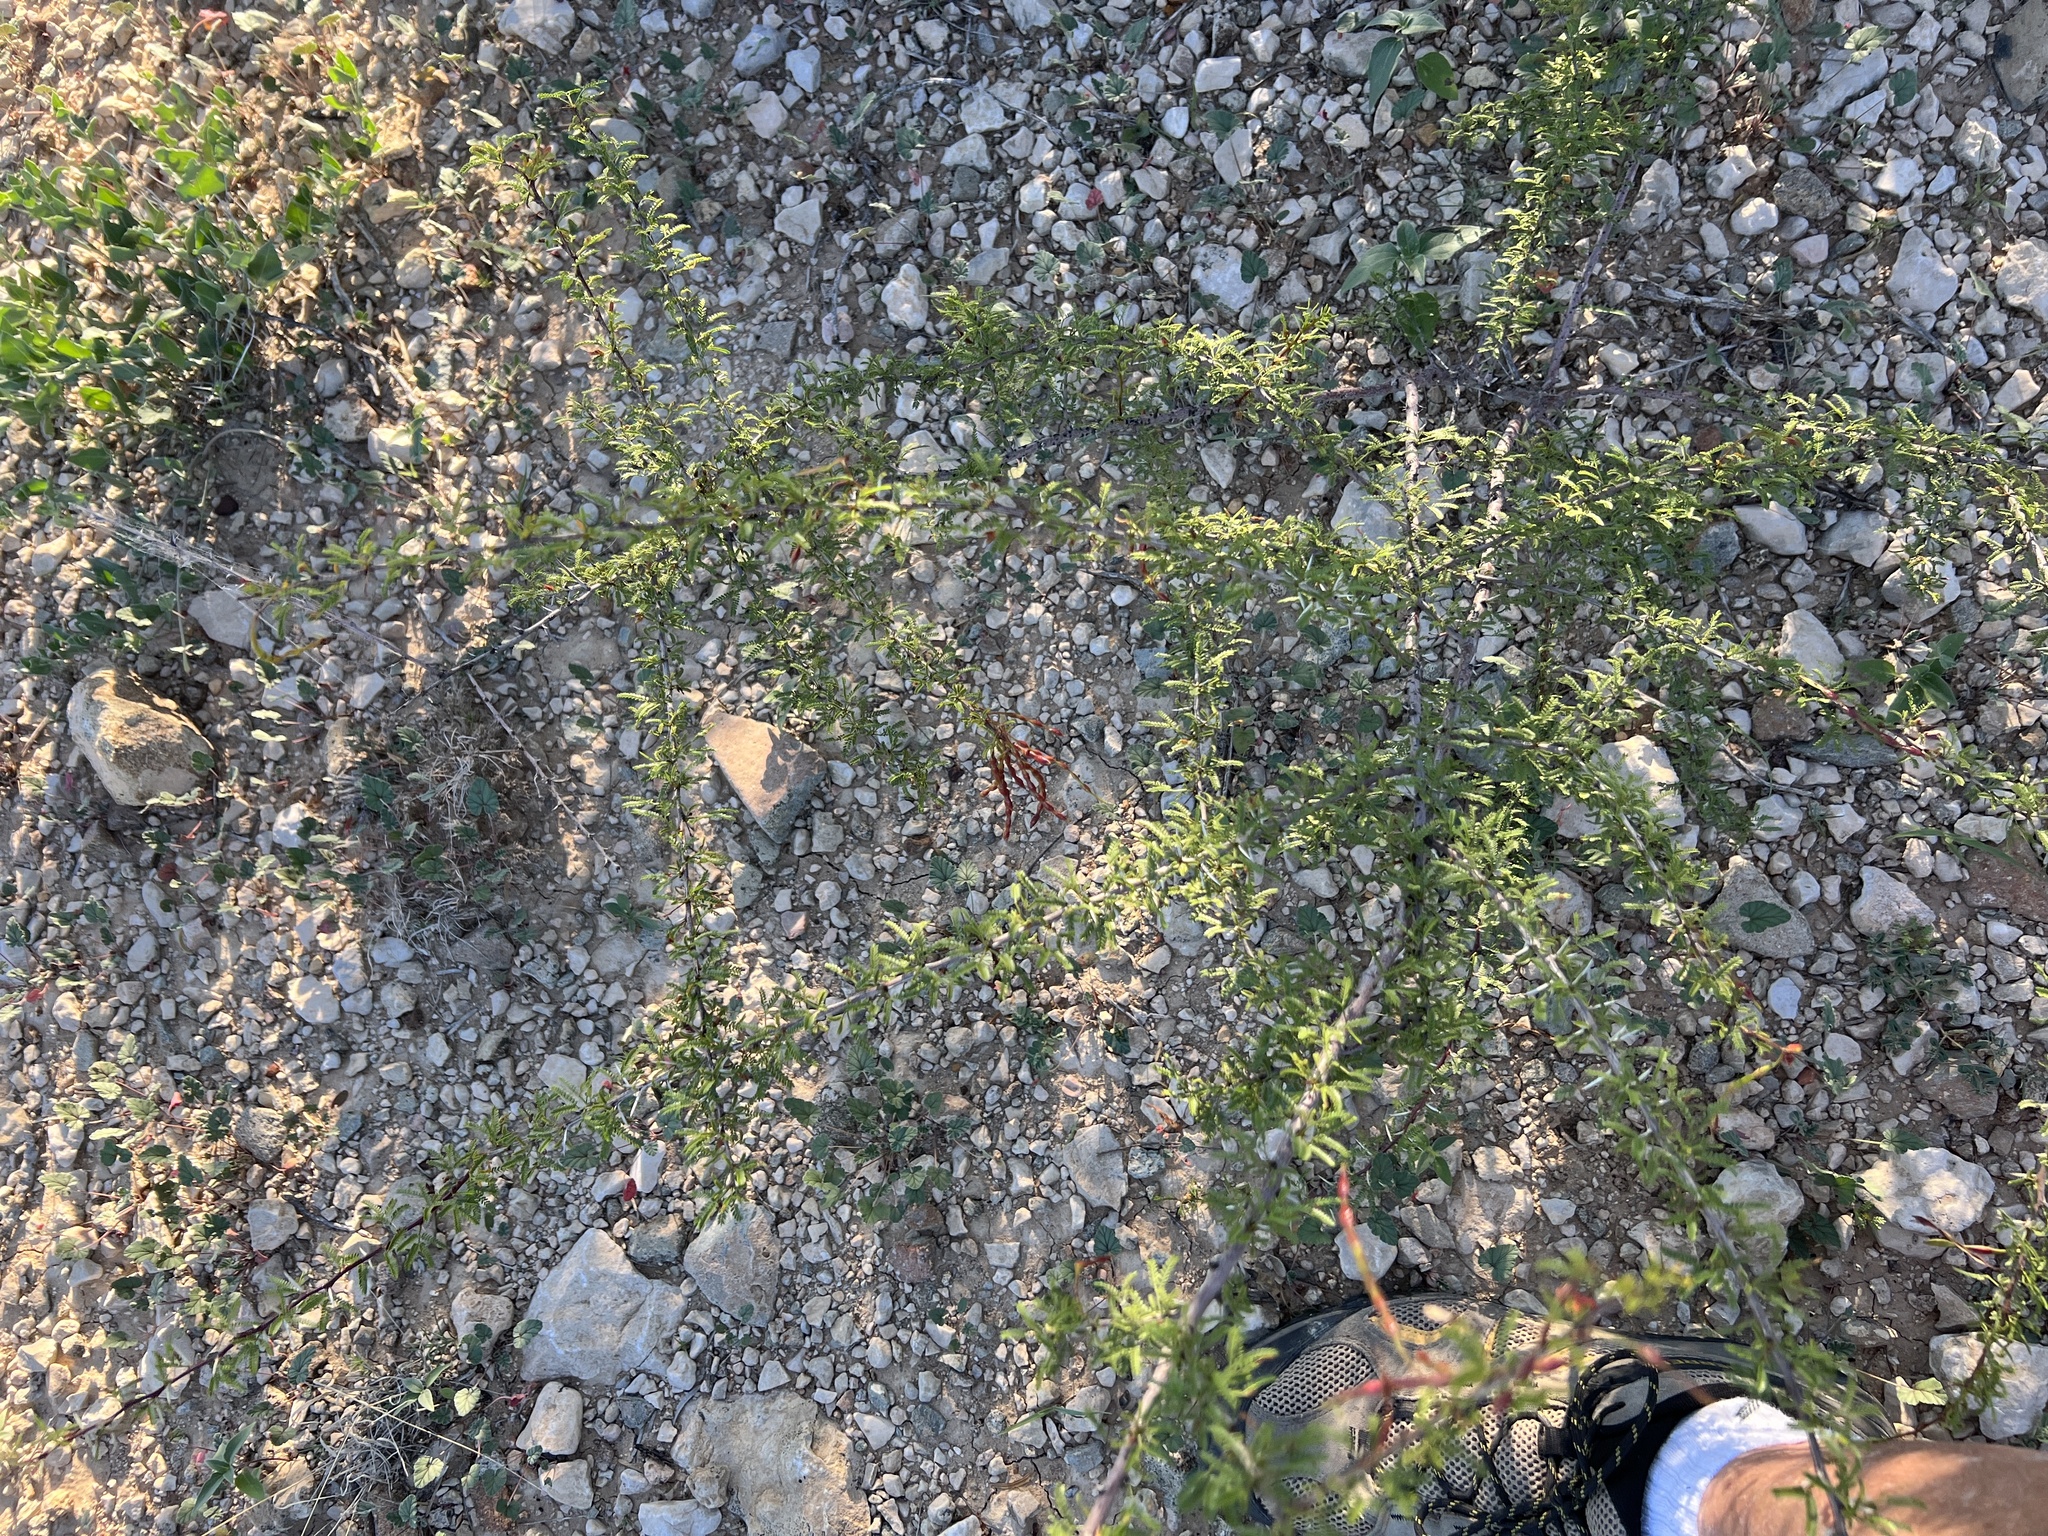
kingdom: Plantae
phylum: Tracheophyta
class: Magnoliopsida
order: Fabales
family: Fabaceae
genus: Vachellia
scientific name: Vachellia vernicosa
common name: Viscid acacia
